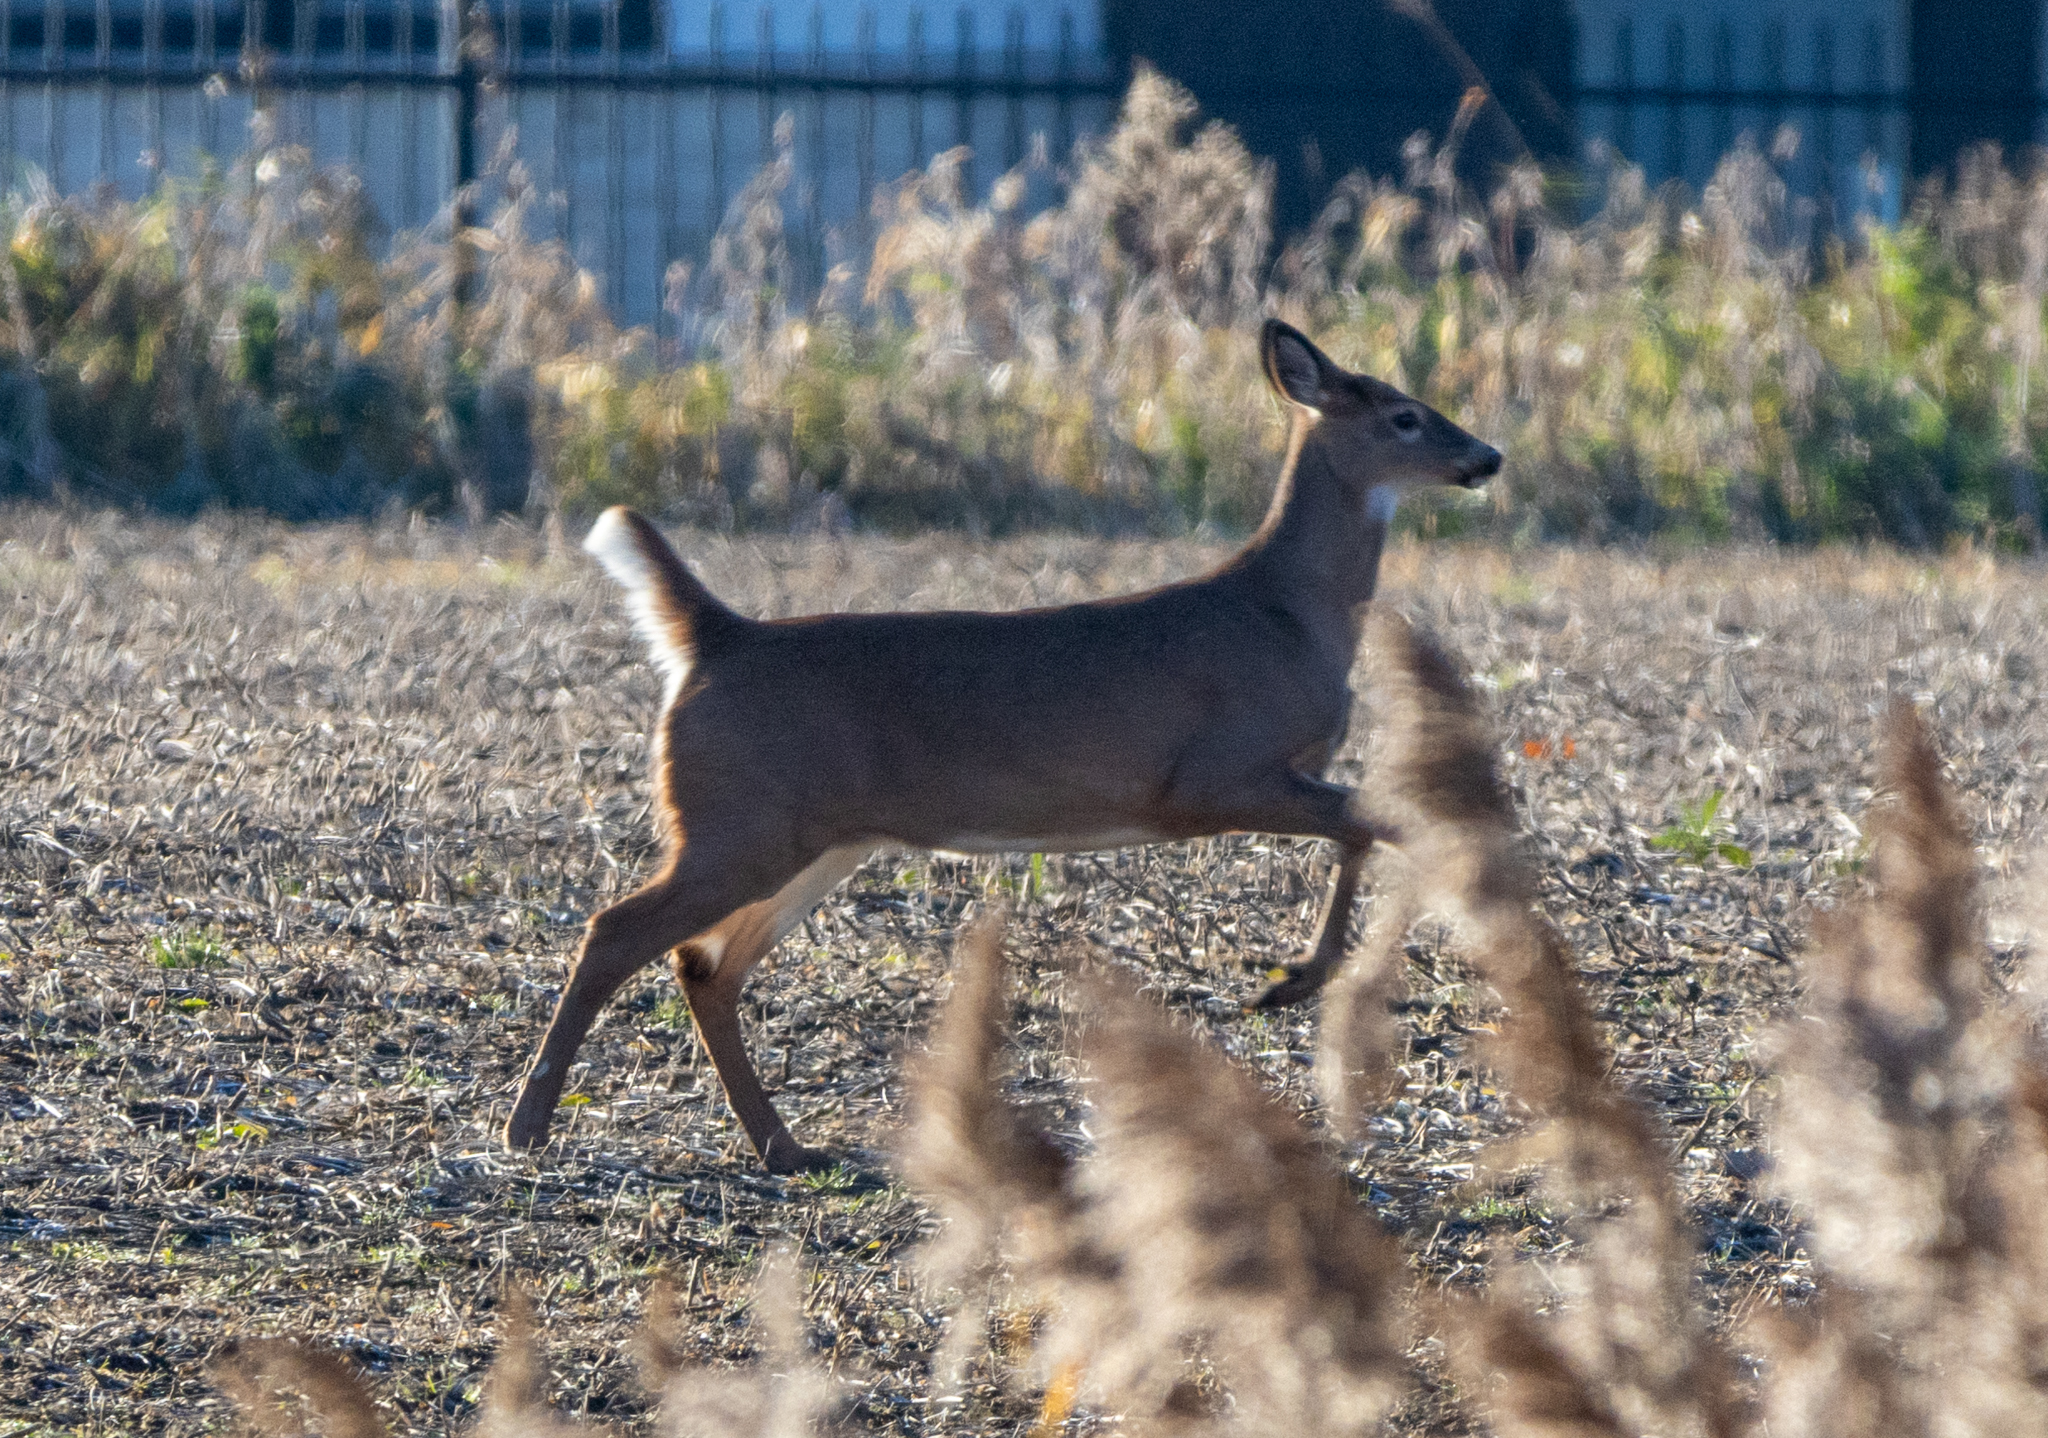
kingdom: Animalia
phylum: Chordata
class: Mammalia
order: Artiodactyla
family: Cervidae
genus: Odocoileus
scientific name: Odocoileus virginianus
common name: White-tailed deer
